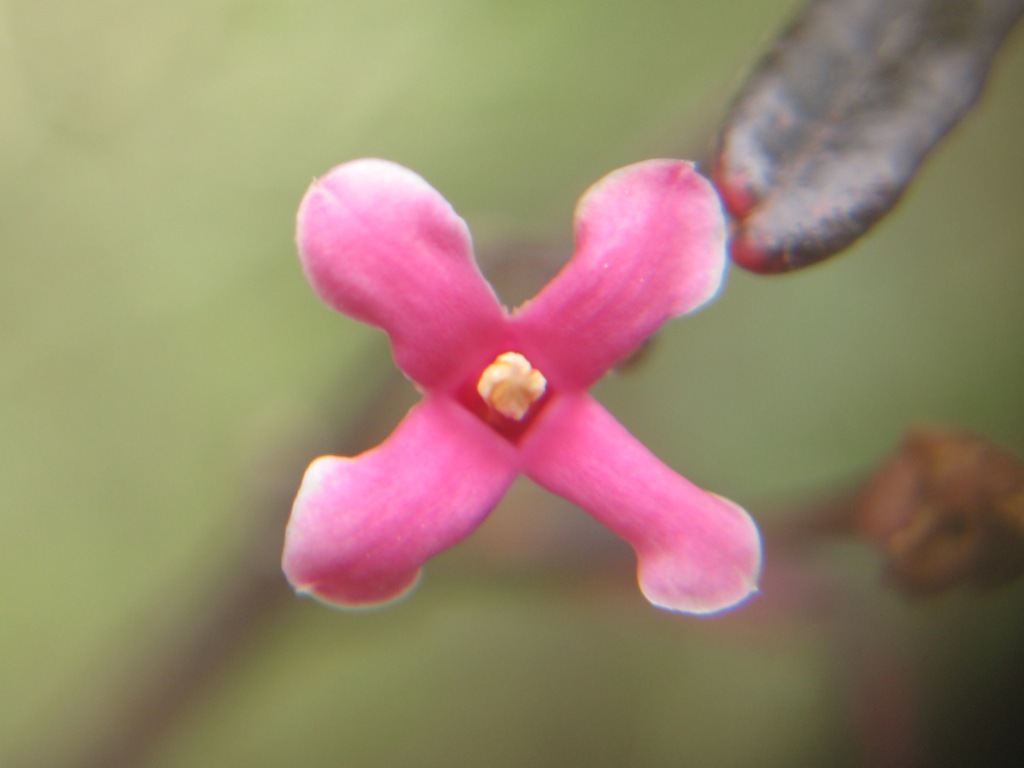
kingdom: Plantae
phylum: Tracheophyta
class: Magnoliopsida
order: Gentianales
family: Apocynaceae
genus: Parsonsia
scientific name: Parsonsia heterophylla
